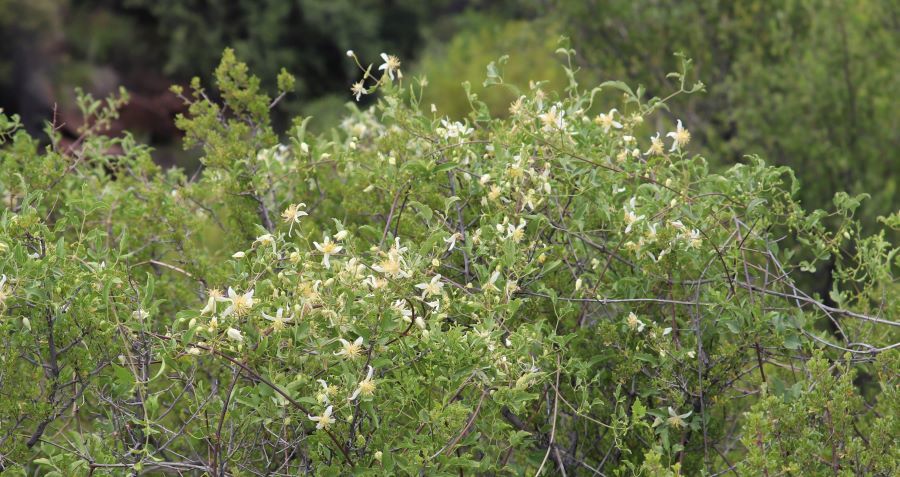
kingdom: Plantae
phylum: Tracheophyta
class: Magnoliopsida
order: Ranunculales
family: Ranunculaceae
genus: Clematis
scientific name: Clematis brachiata
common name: Traveler's-joy
